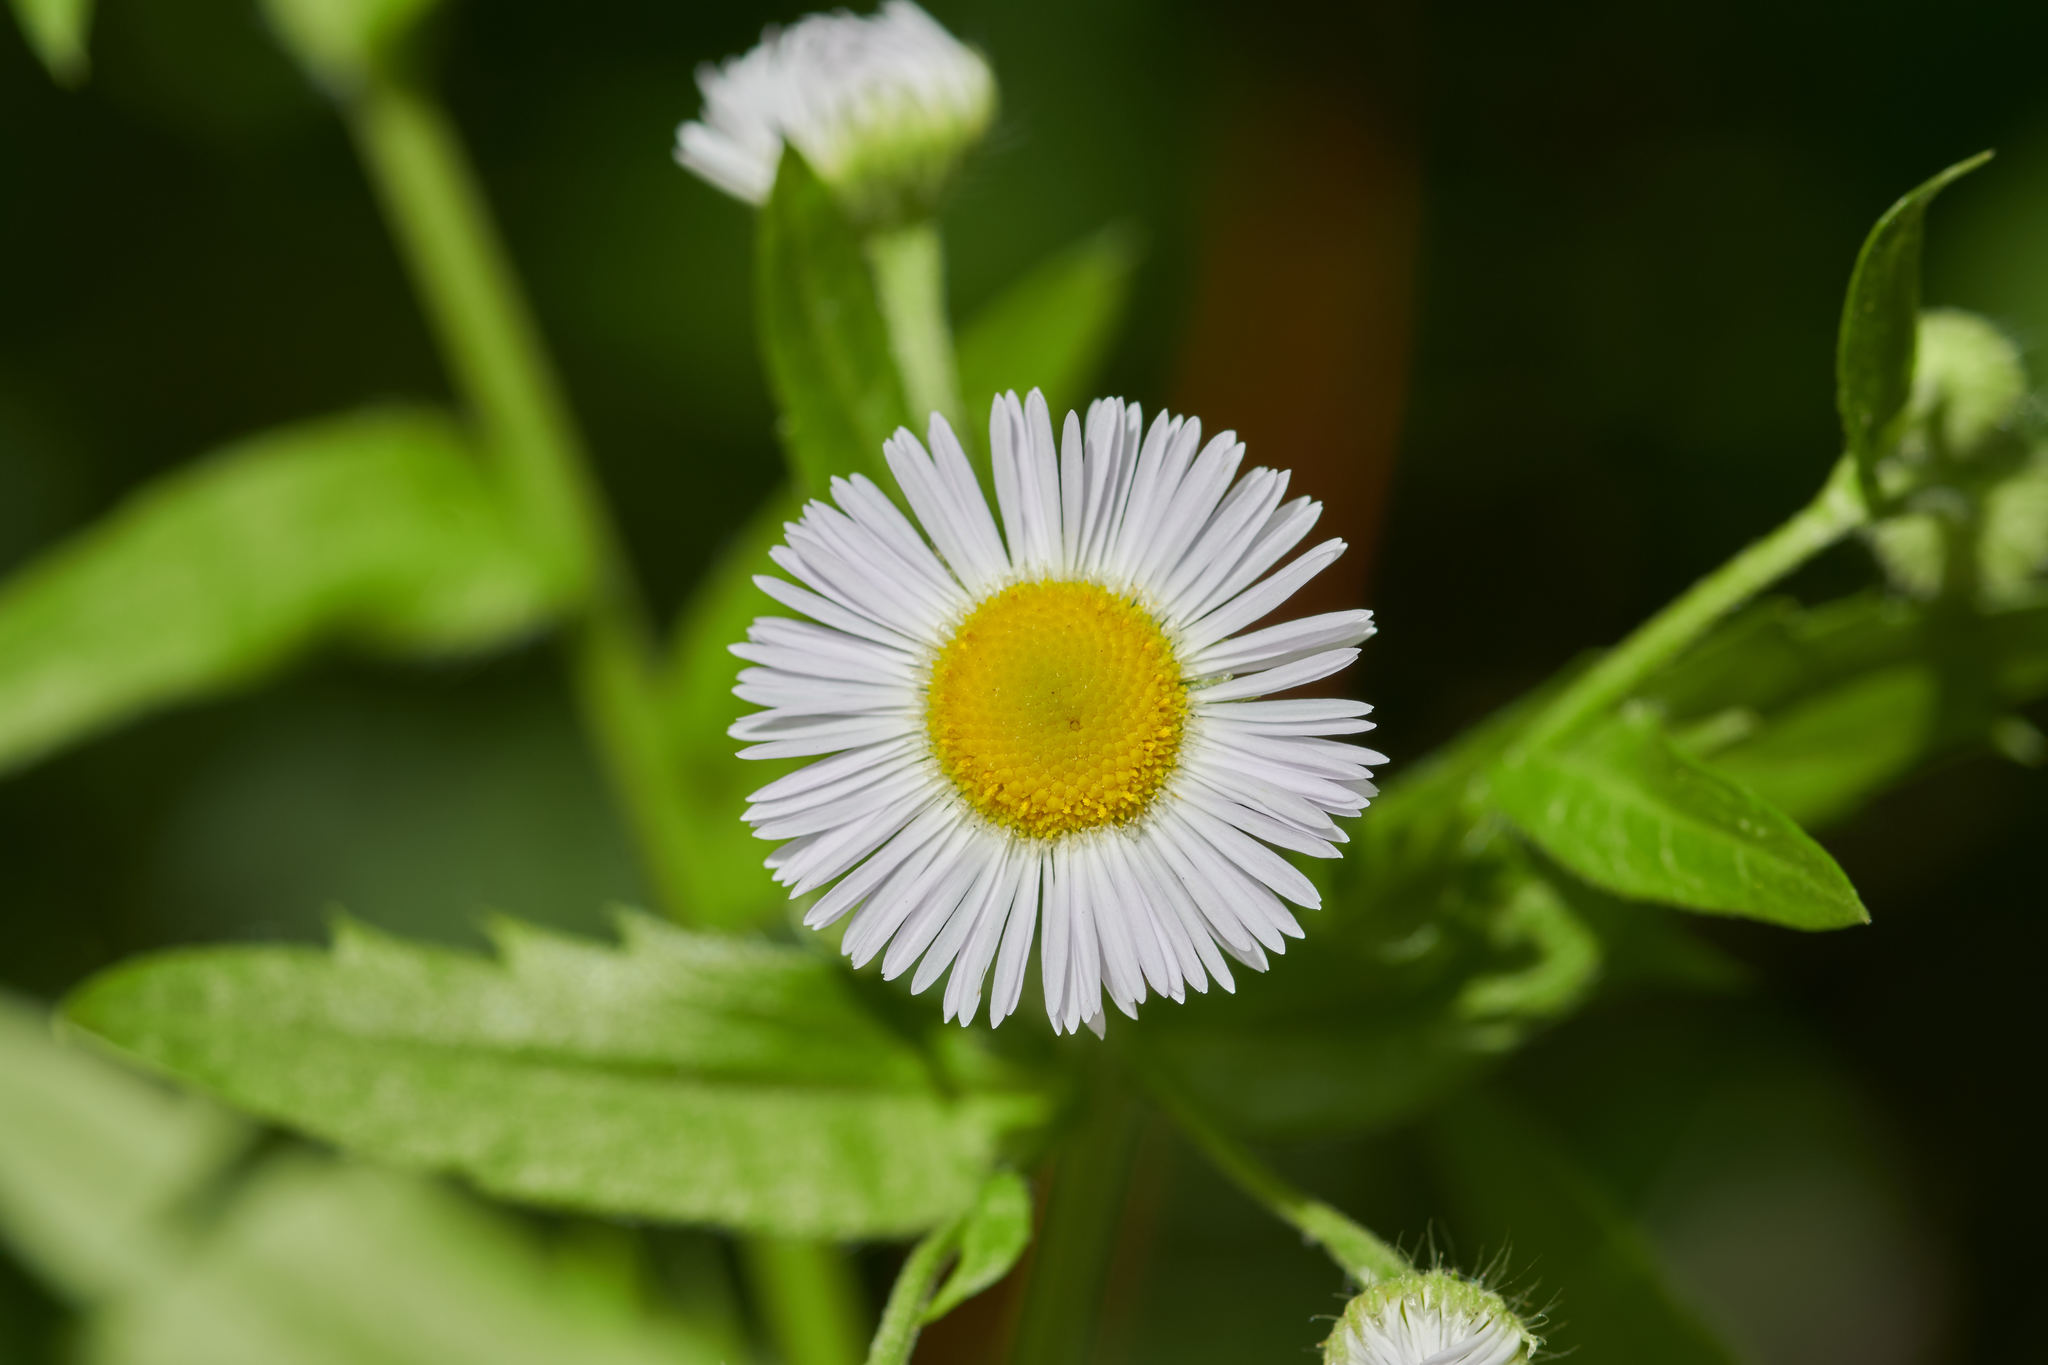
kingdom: Plantae
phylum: Tracheophyta
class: Magnoliopsida
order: Asterales
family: Asteraceae
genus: Erigeron
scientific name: Erigeron annuus
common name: Tall fleabane
